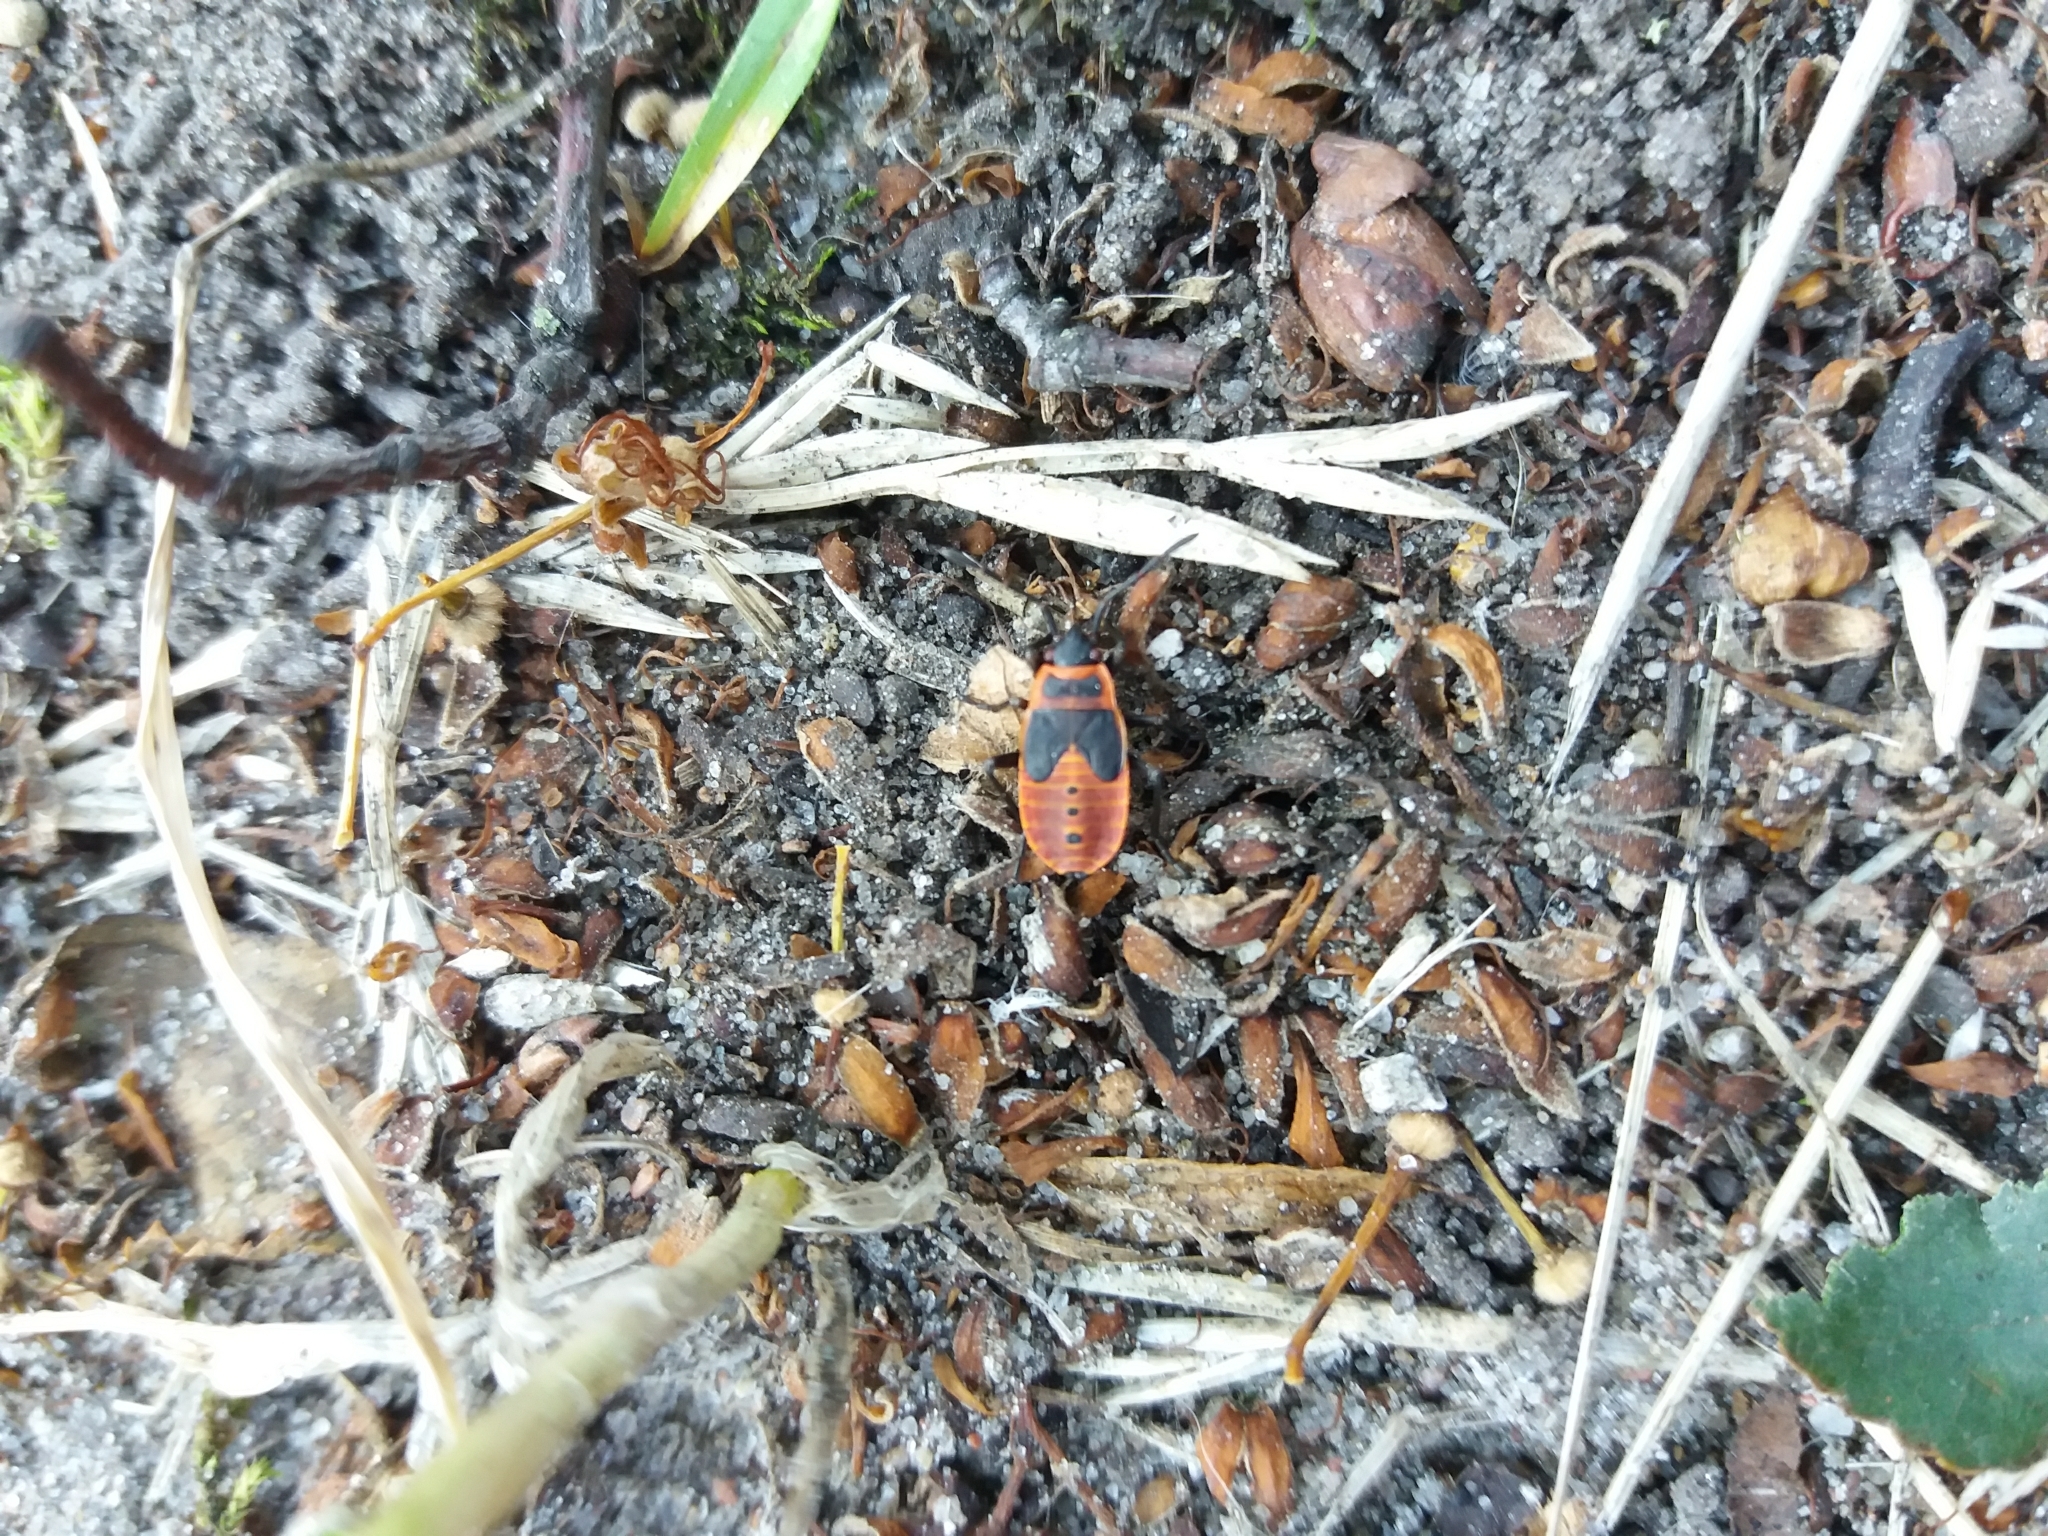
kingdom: Animalia
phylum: Arthropoda
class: Insecta
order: Hemiptera
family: Pyrrhocoridae
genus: Pyrrhocoris
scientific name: Pyrrhocoris apterus
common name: Firebug
